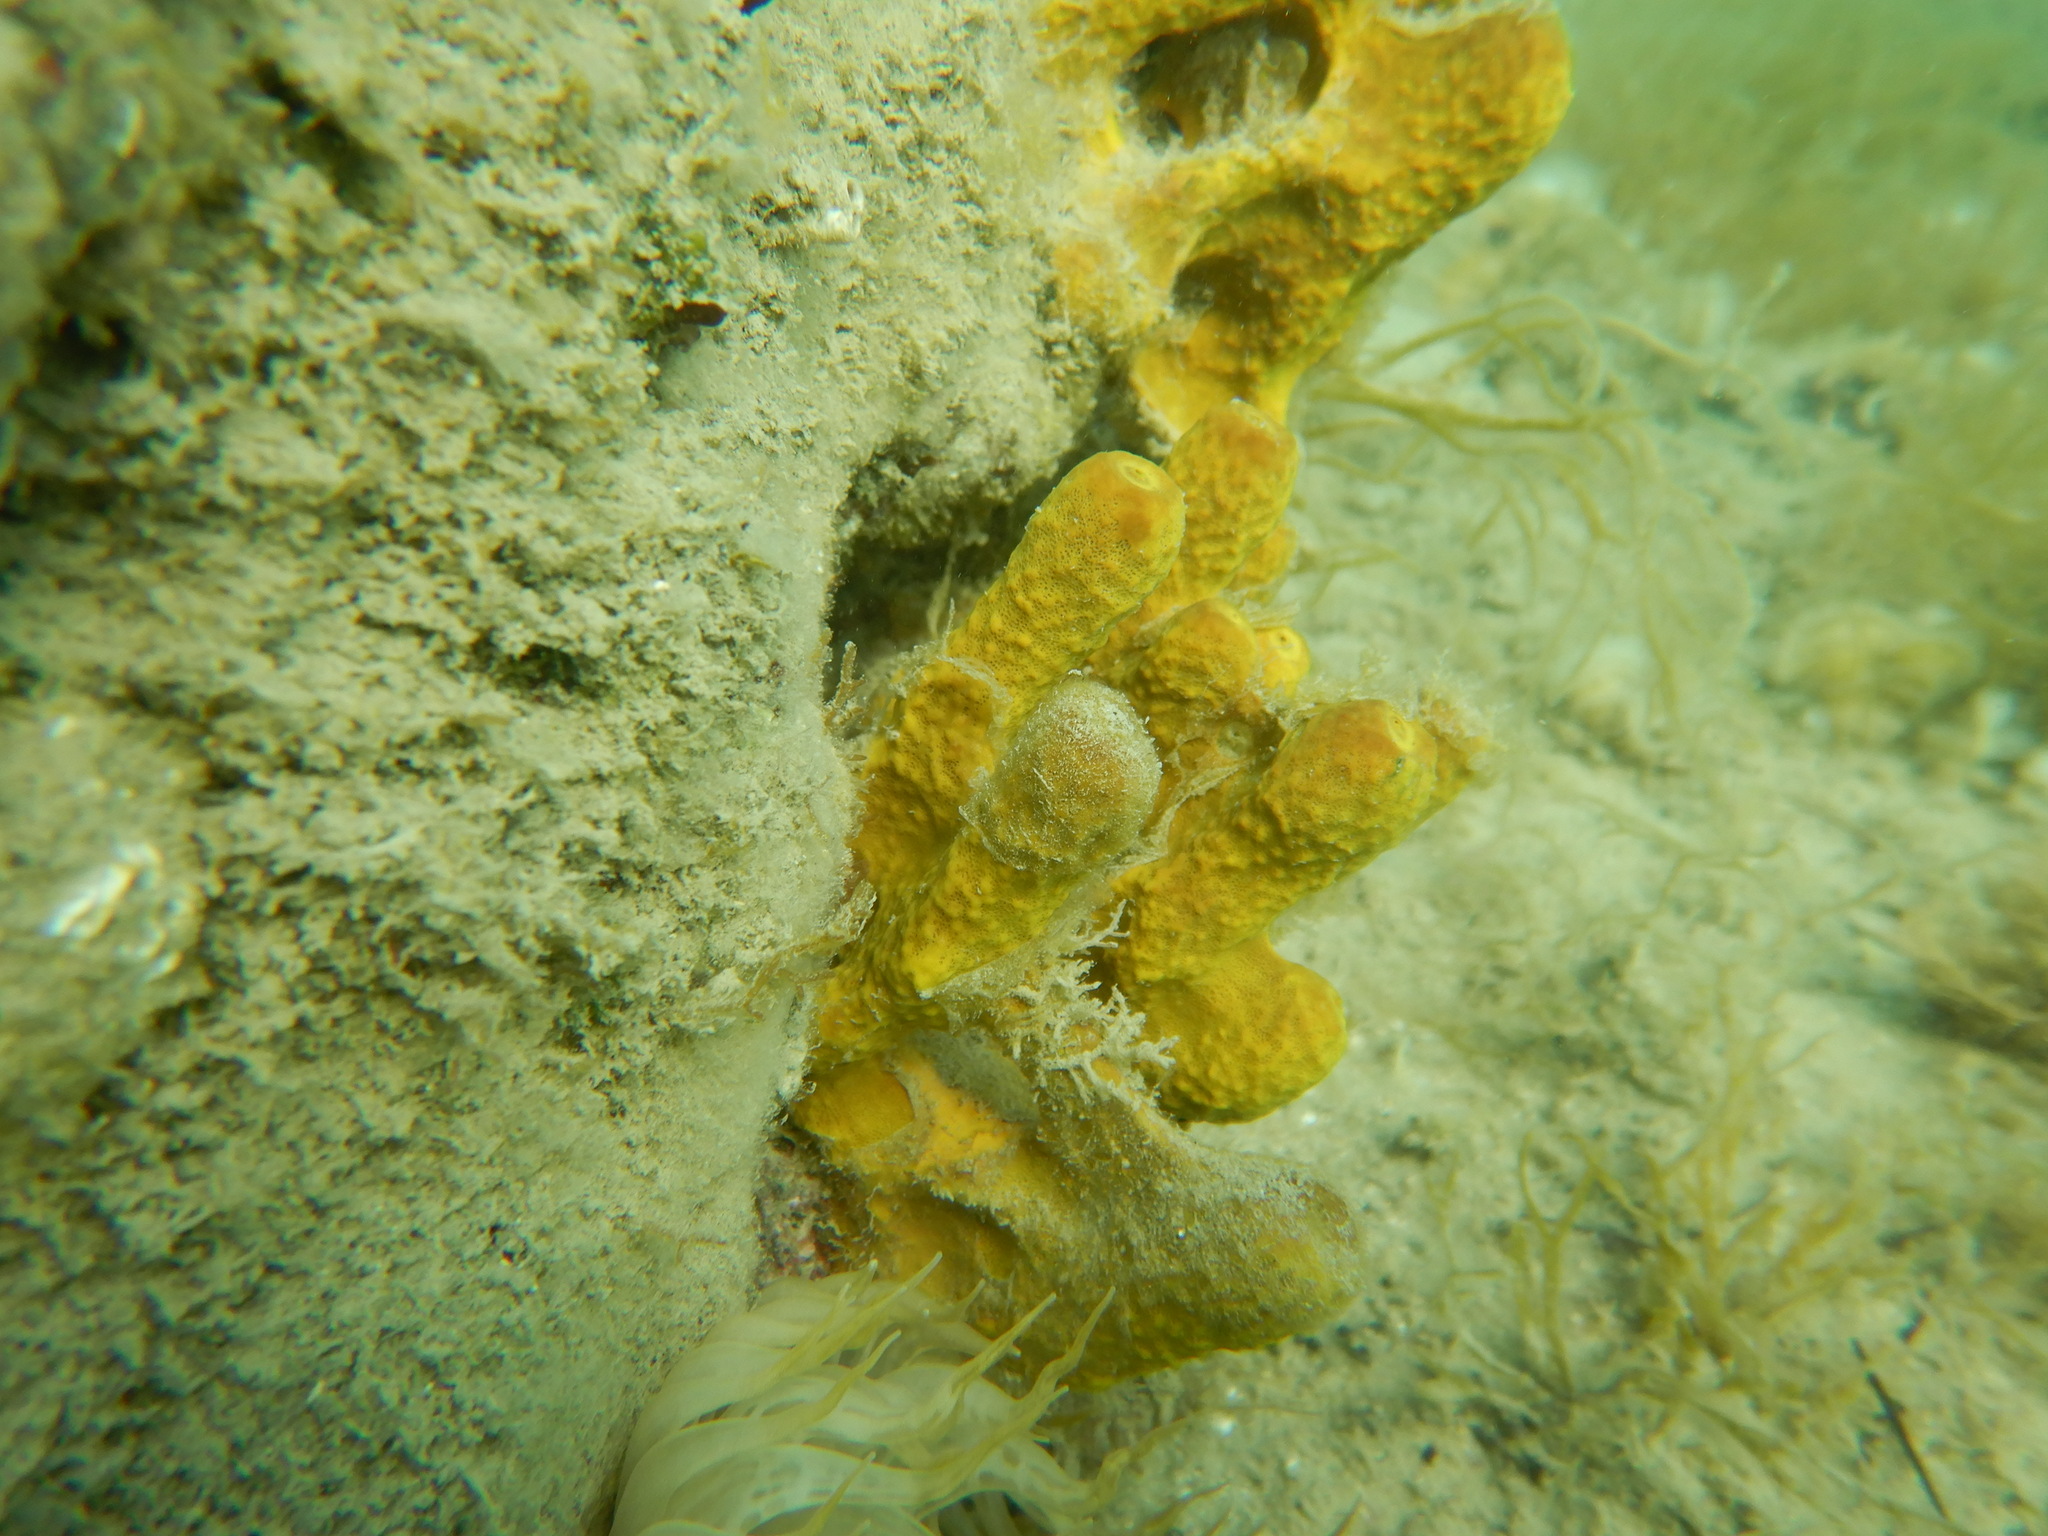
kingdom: Animalia
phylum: Porifera
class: Demospongiae
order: Verongiida
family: Aplysinidae
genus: Aplysina
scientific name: Aplysina aerophoba
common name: Aureate sponge
